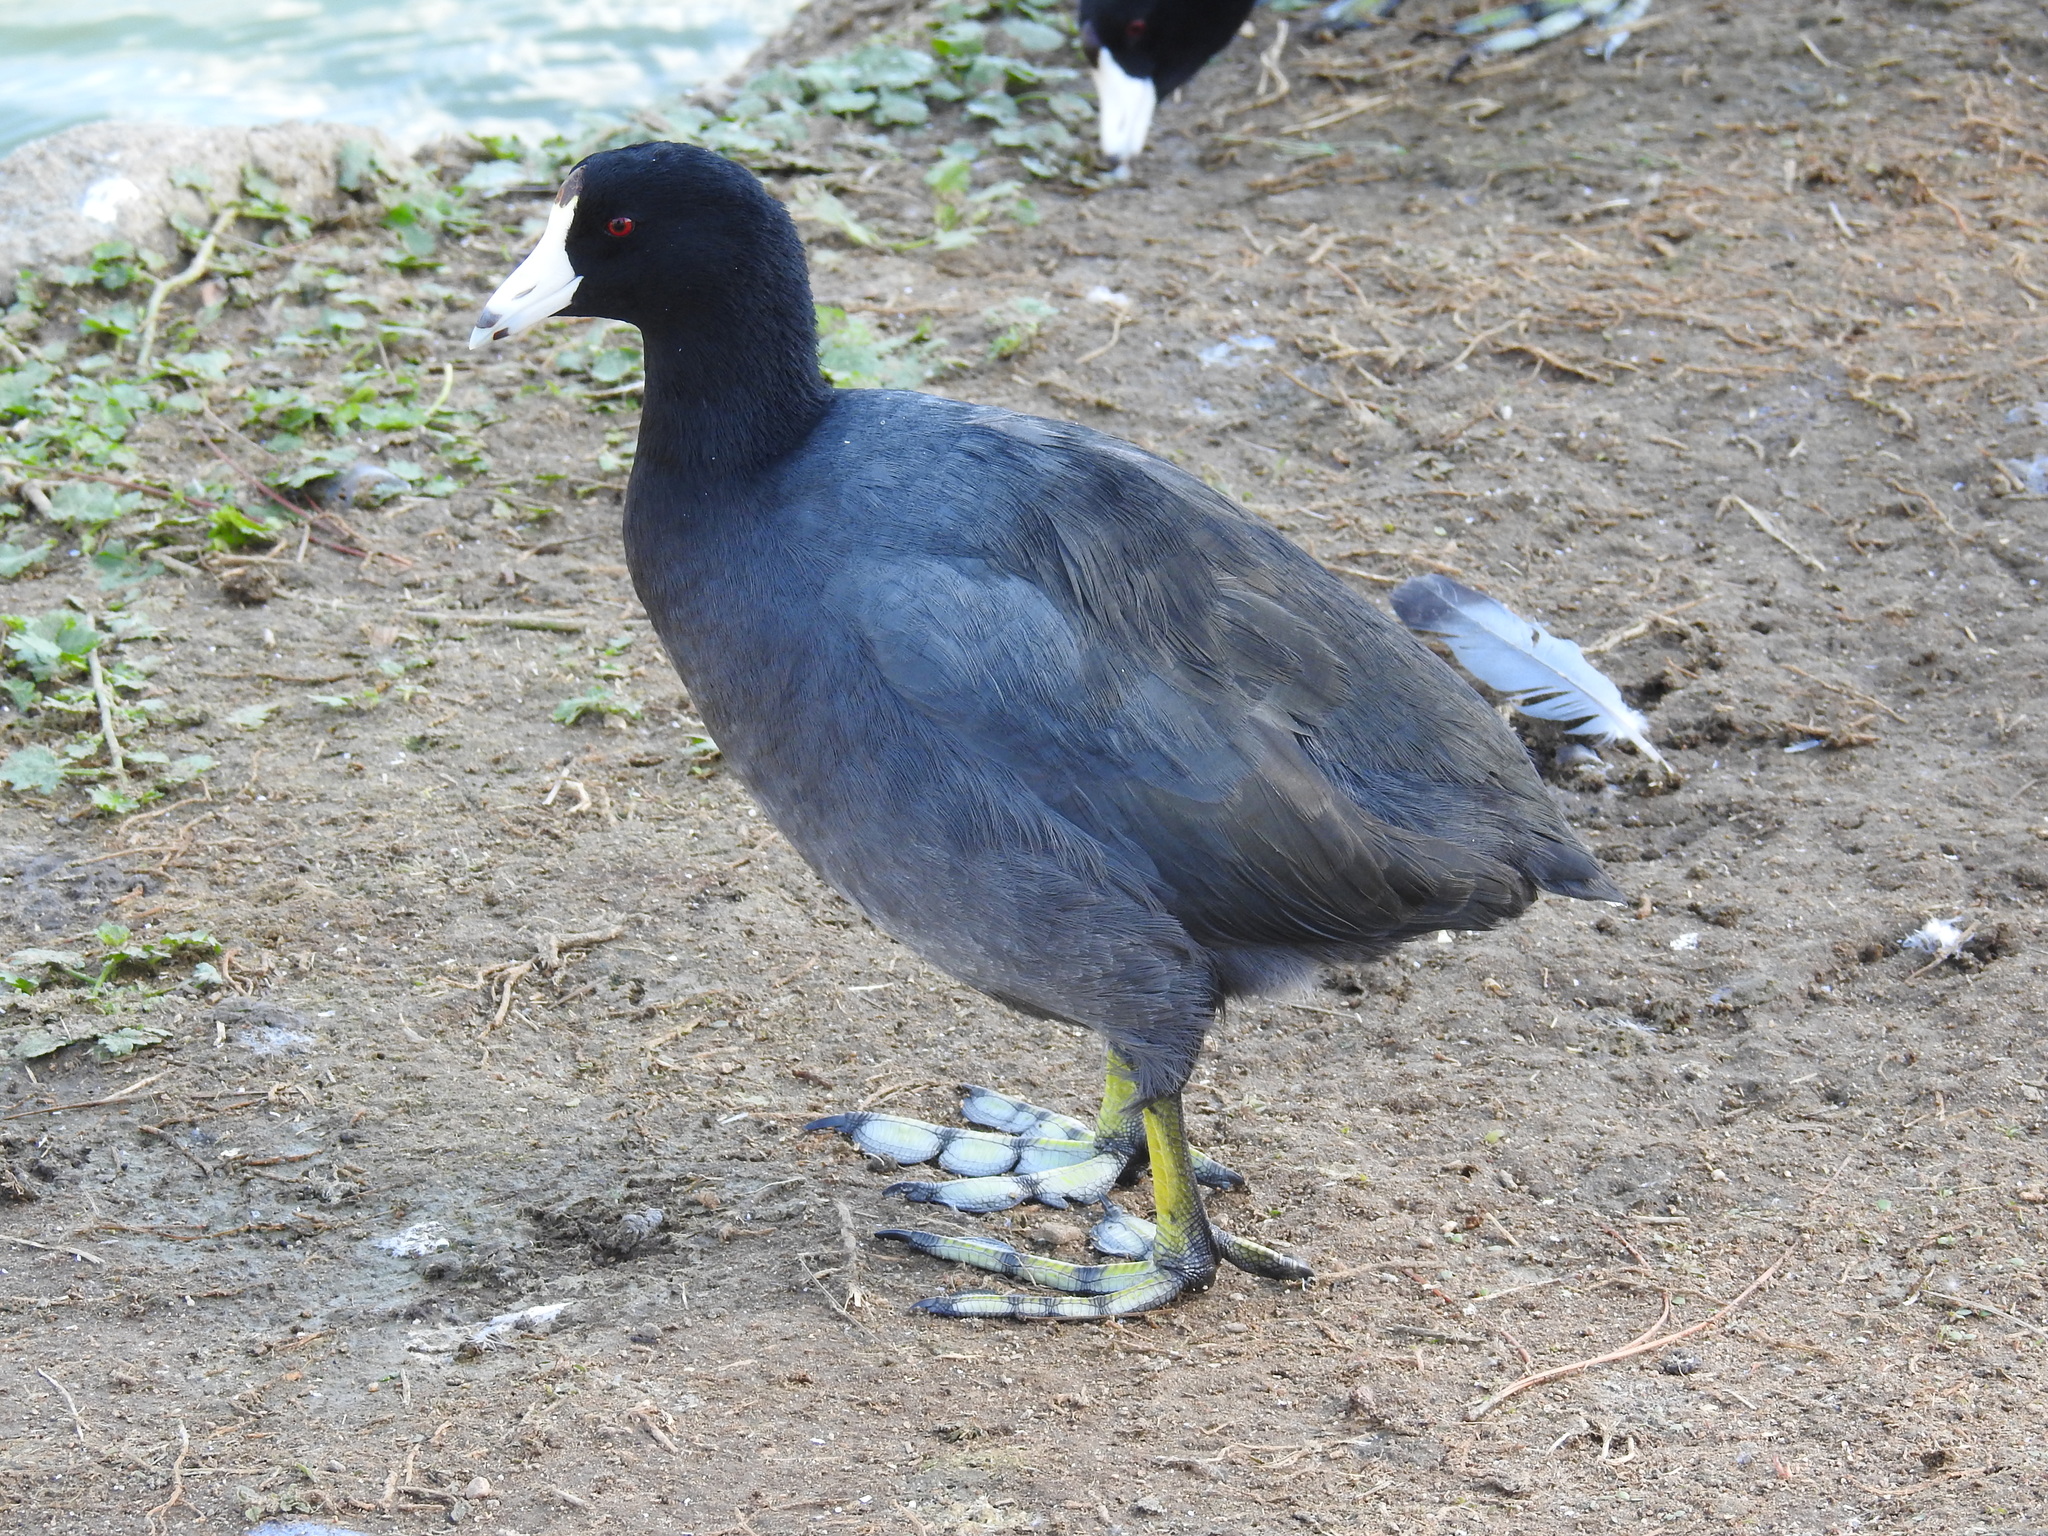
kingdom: Animalia
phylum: Chordata
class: Aves
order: Gruiformes
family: Rallidae
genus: Fulica
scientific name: Fulica americana
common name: American coot
